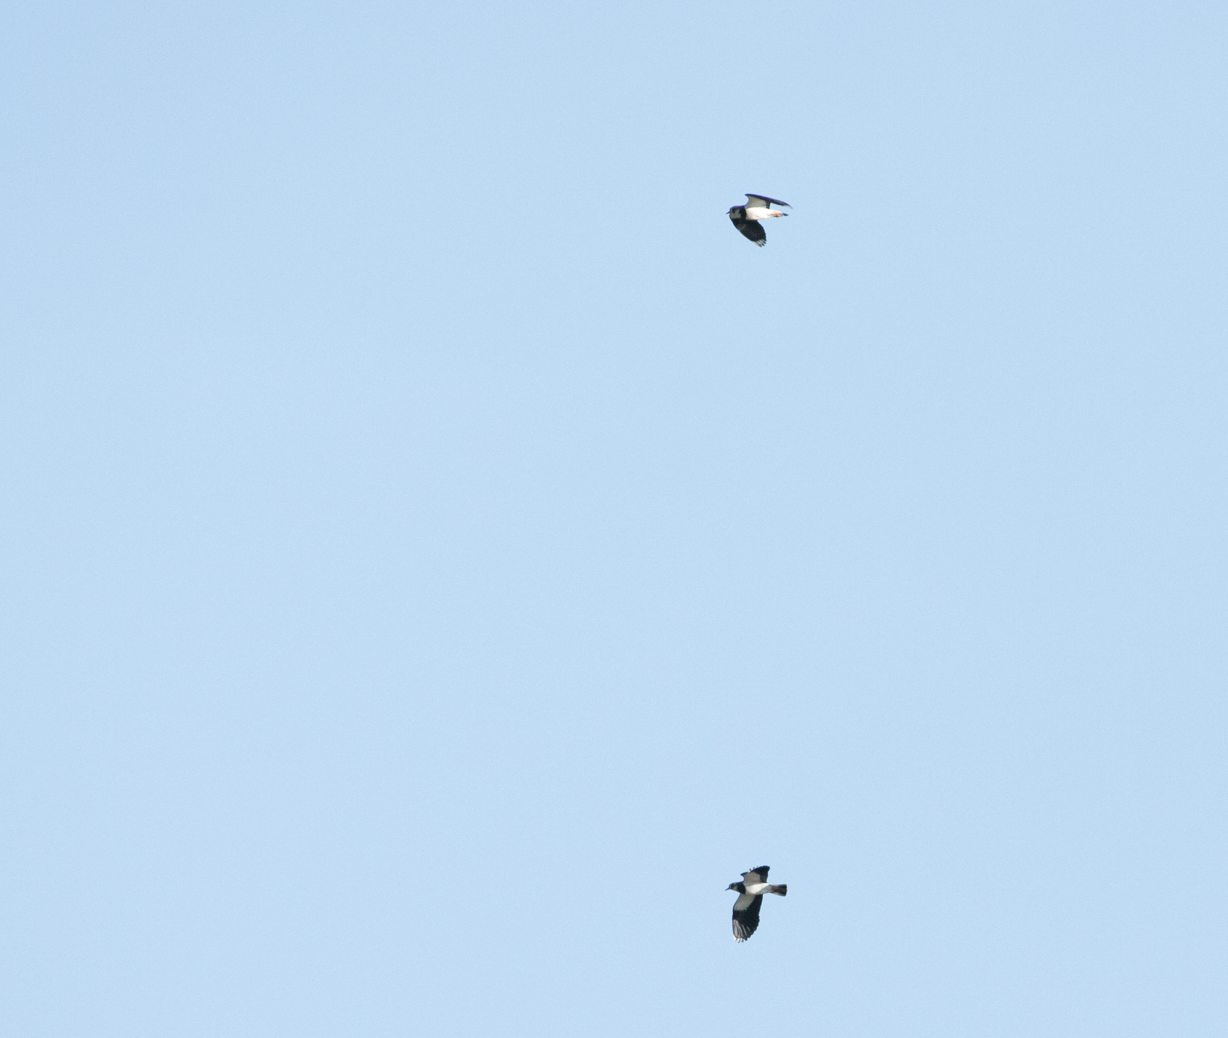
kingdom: Animalia
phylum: Chordata
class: Aves
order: Charadriiformes
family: Charadriidae
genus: Vanellus
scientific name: Vanellus vanellus
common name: Northern lapwing
